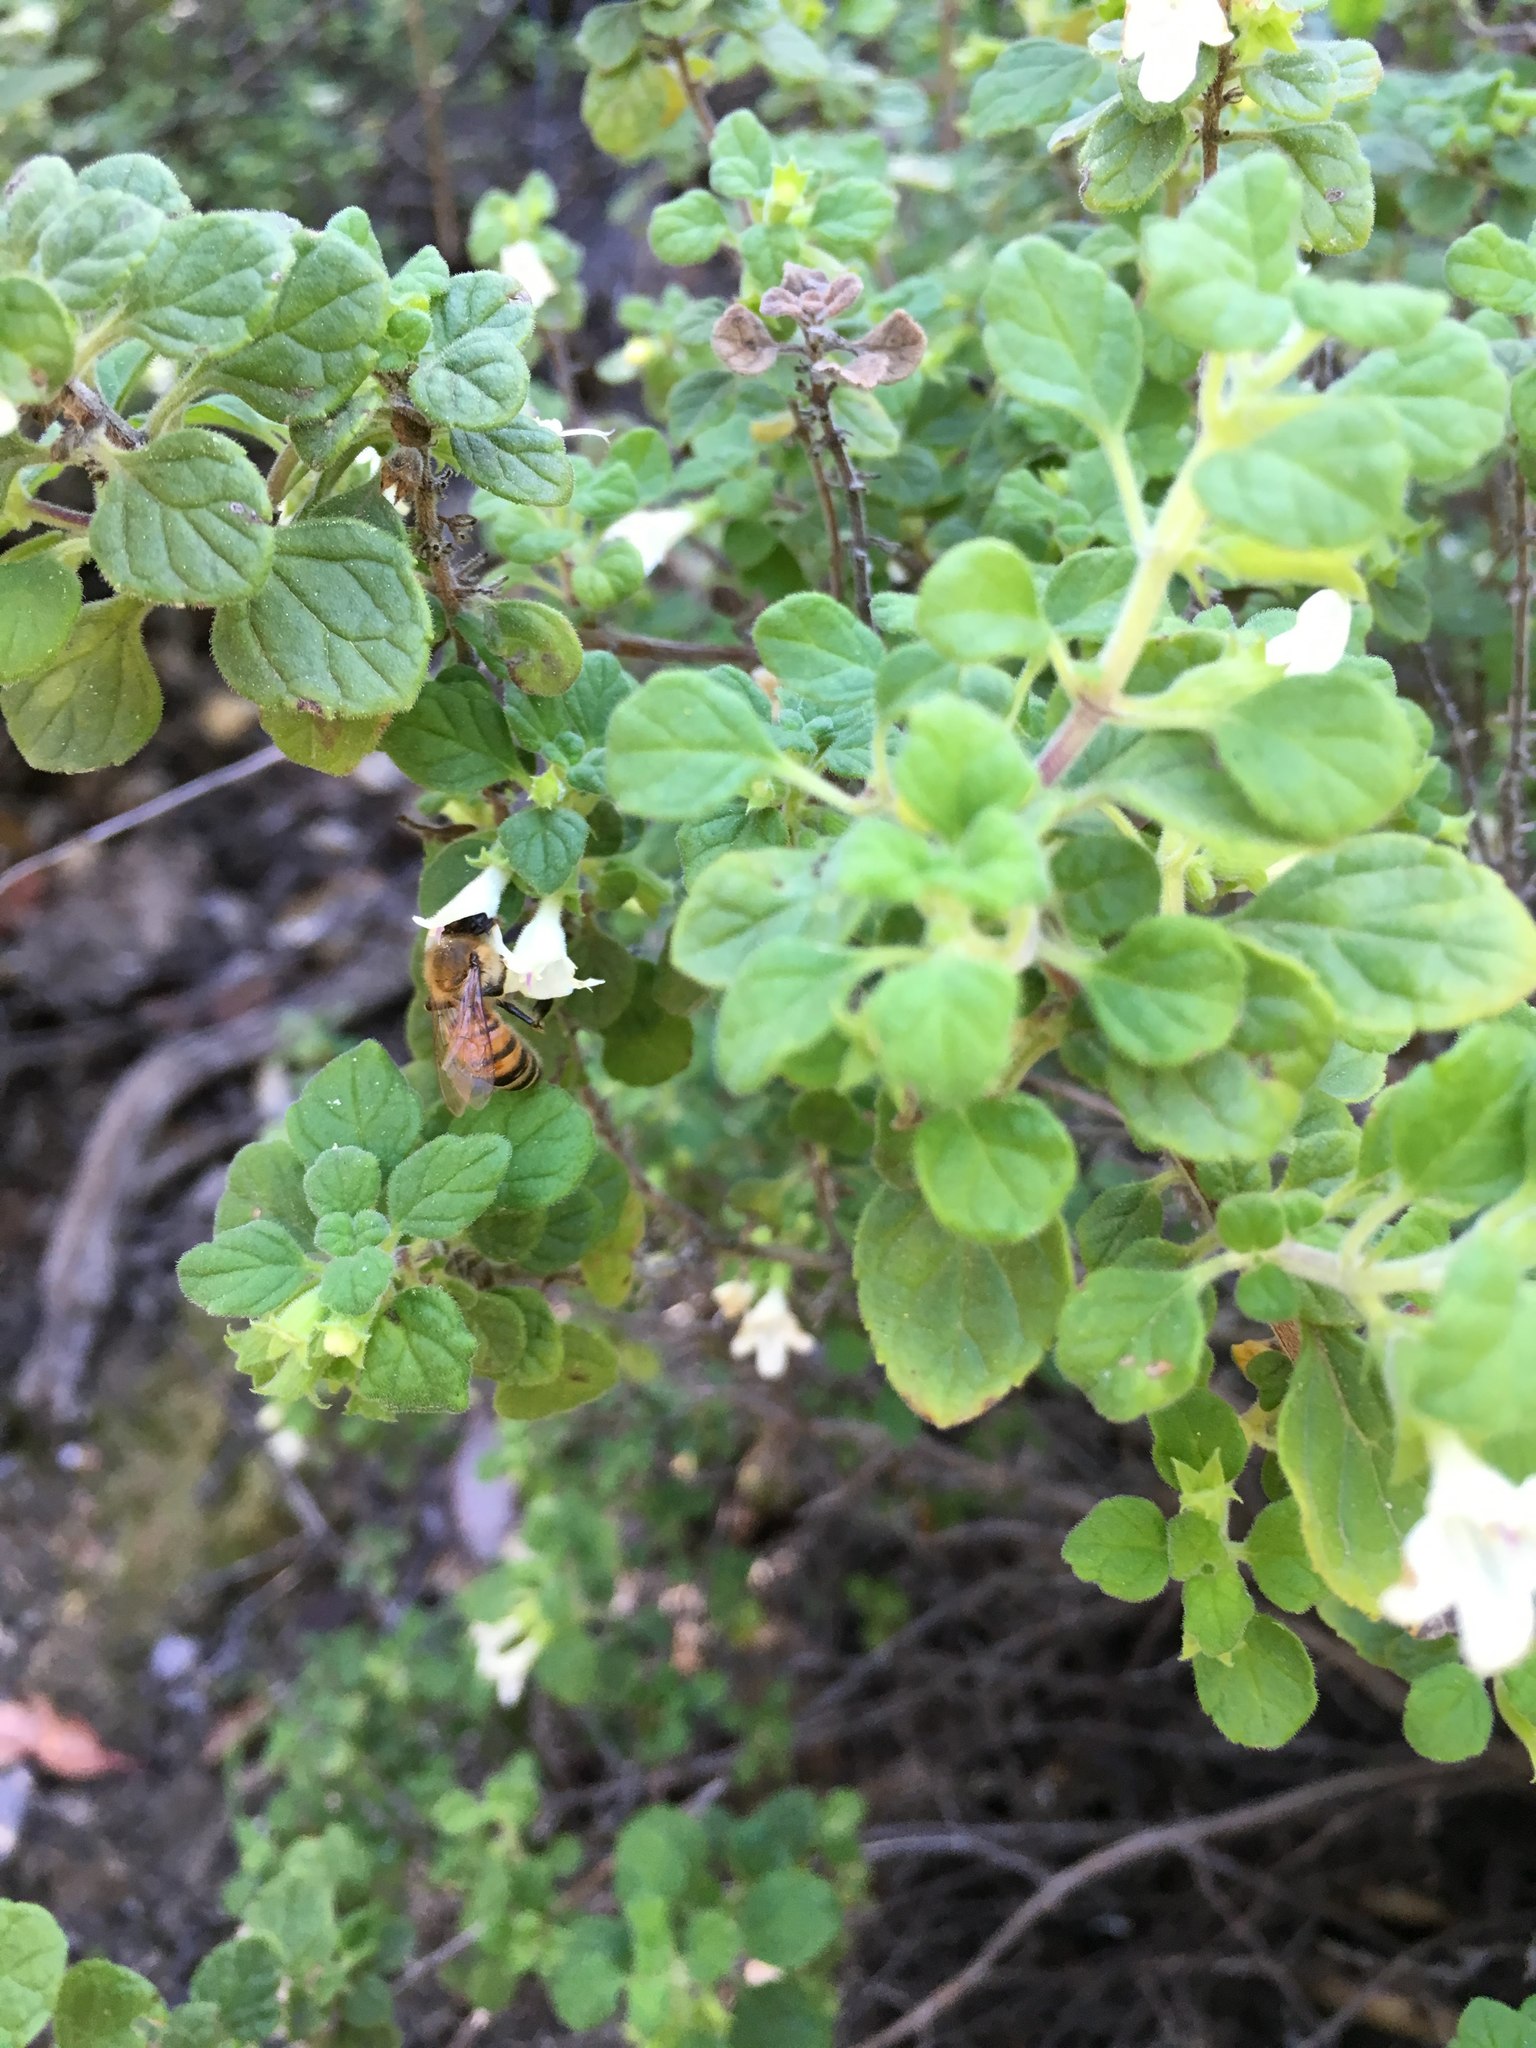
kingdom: Plantae
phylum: Tracheophyta
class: Magnoliopsida
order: Lamiales
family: Lamiaceae
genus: Clinopodium
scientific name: Clinopodium chandleri
